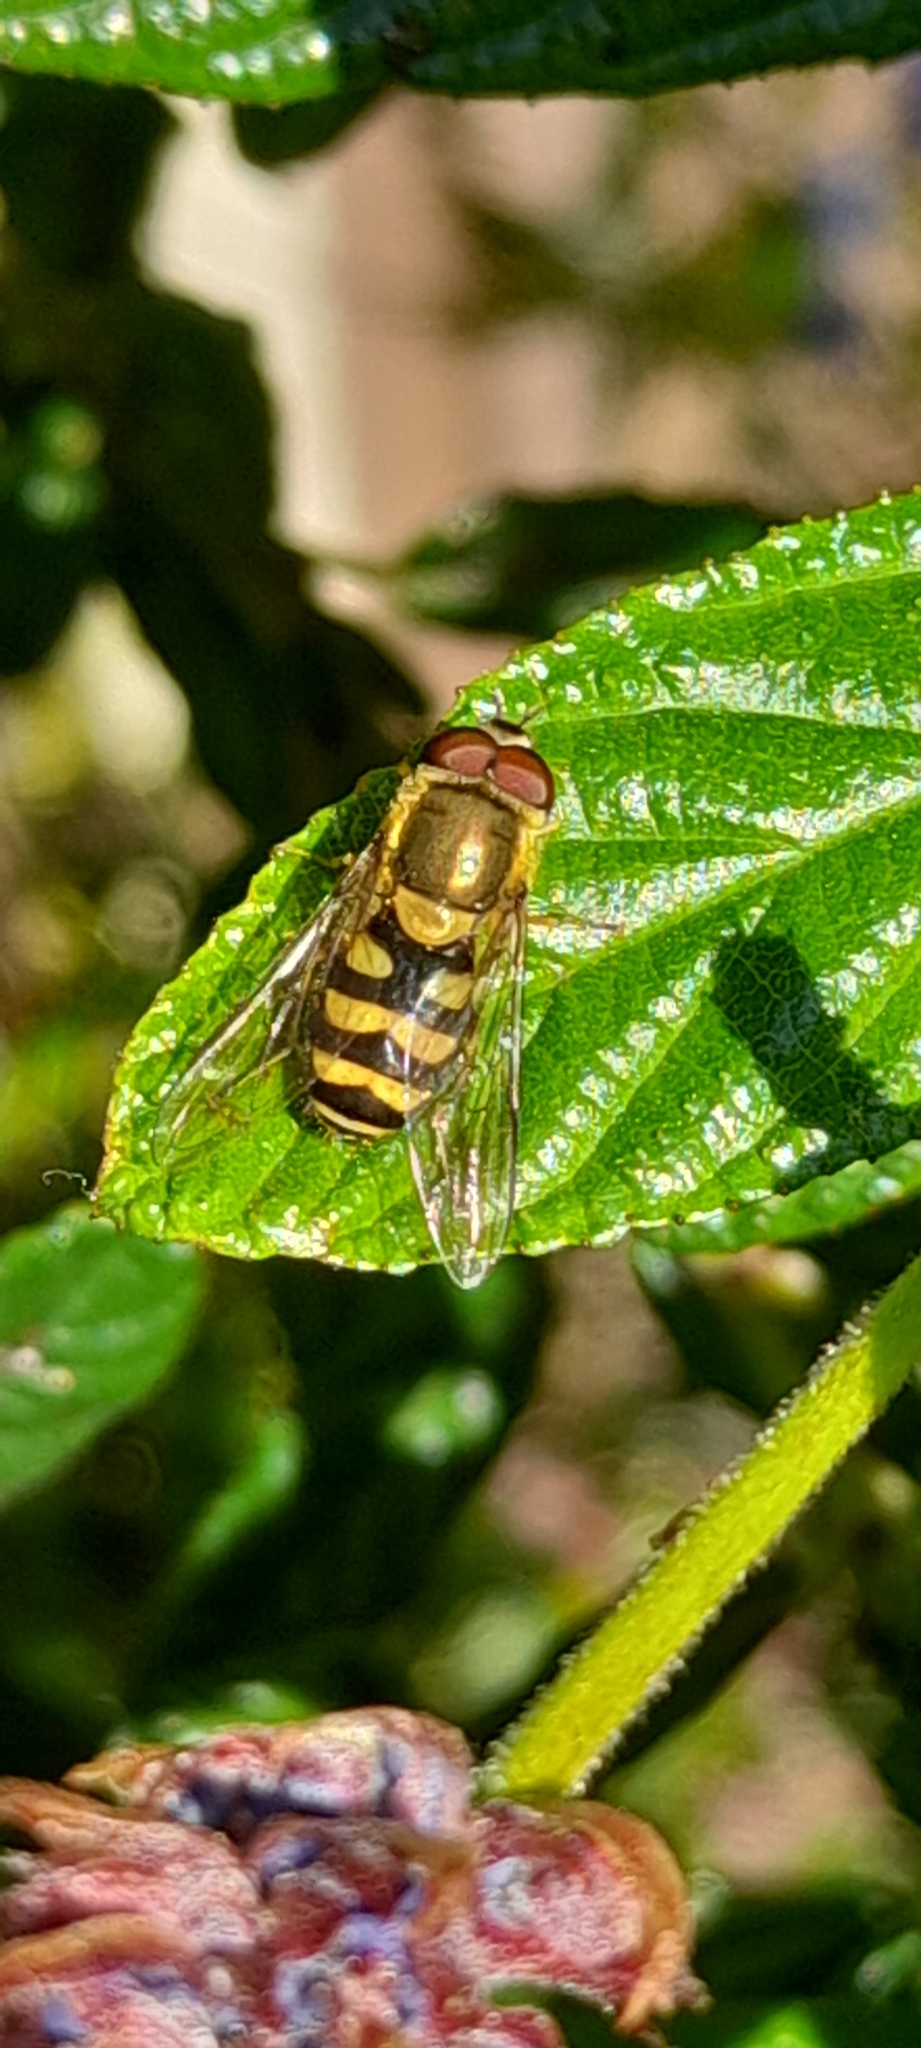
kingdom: Animalia
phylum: Arthropoda
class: Insecta
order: Diptera
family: Syrphidae
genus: Syrphus
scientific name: Syrphus
